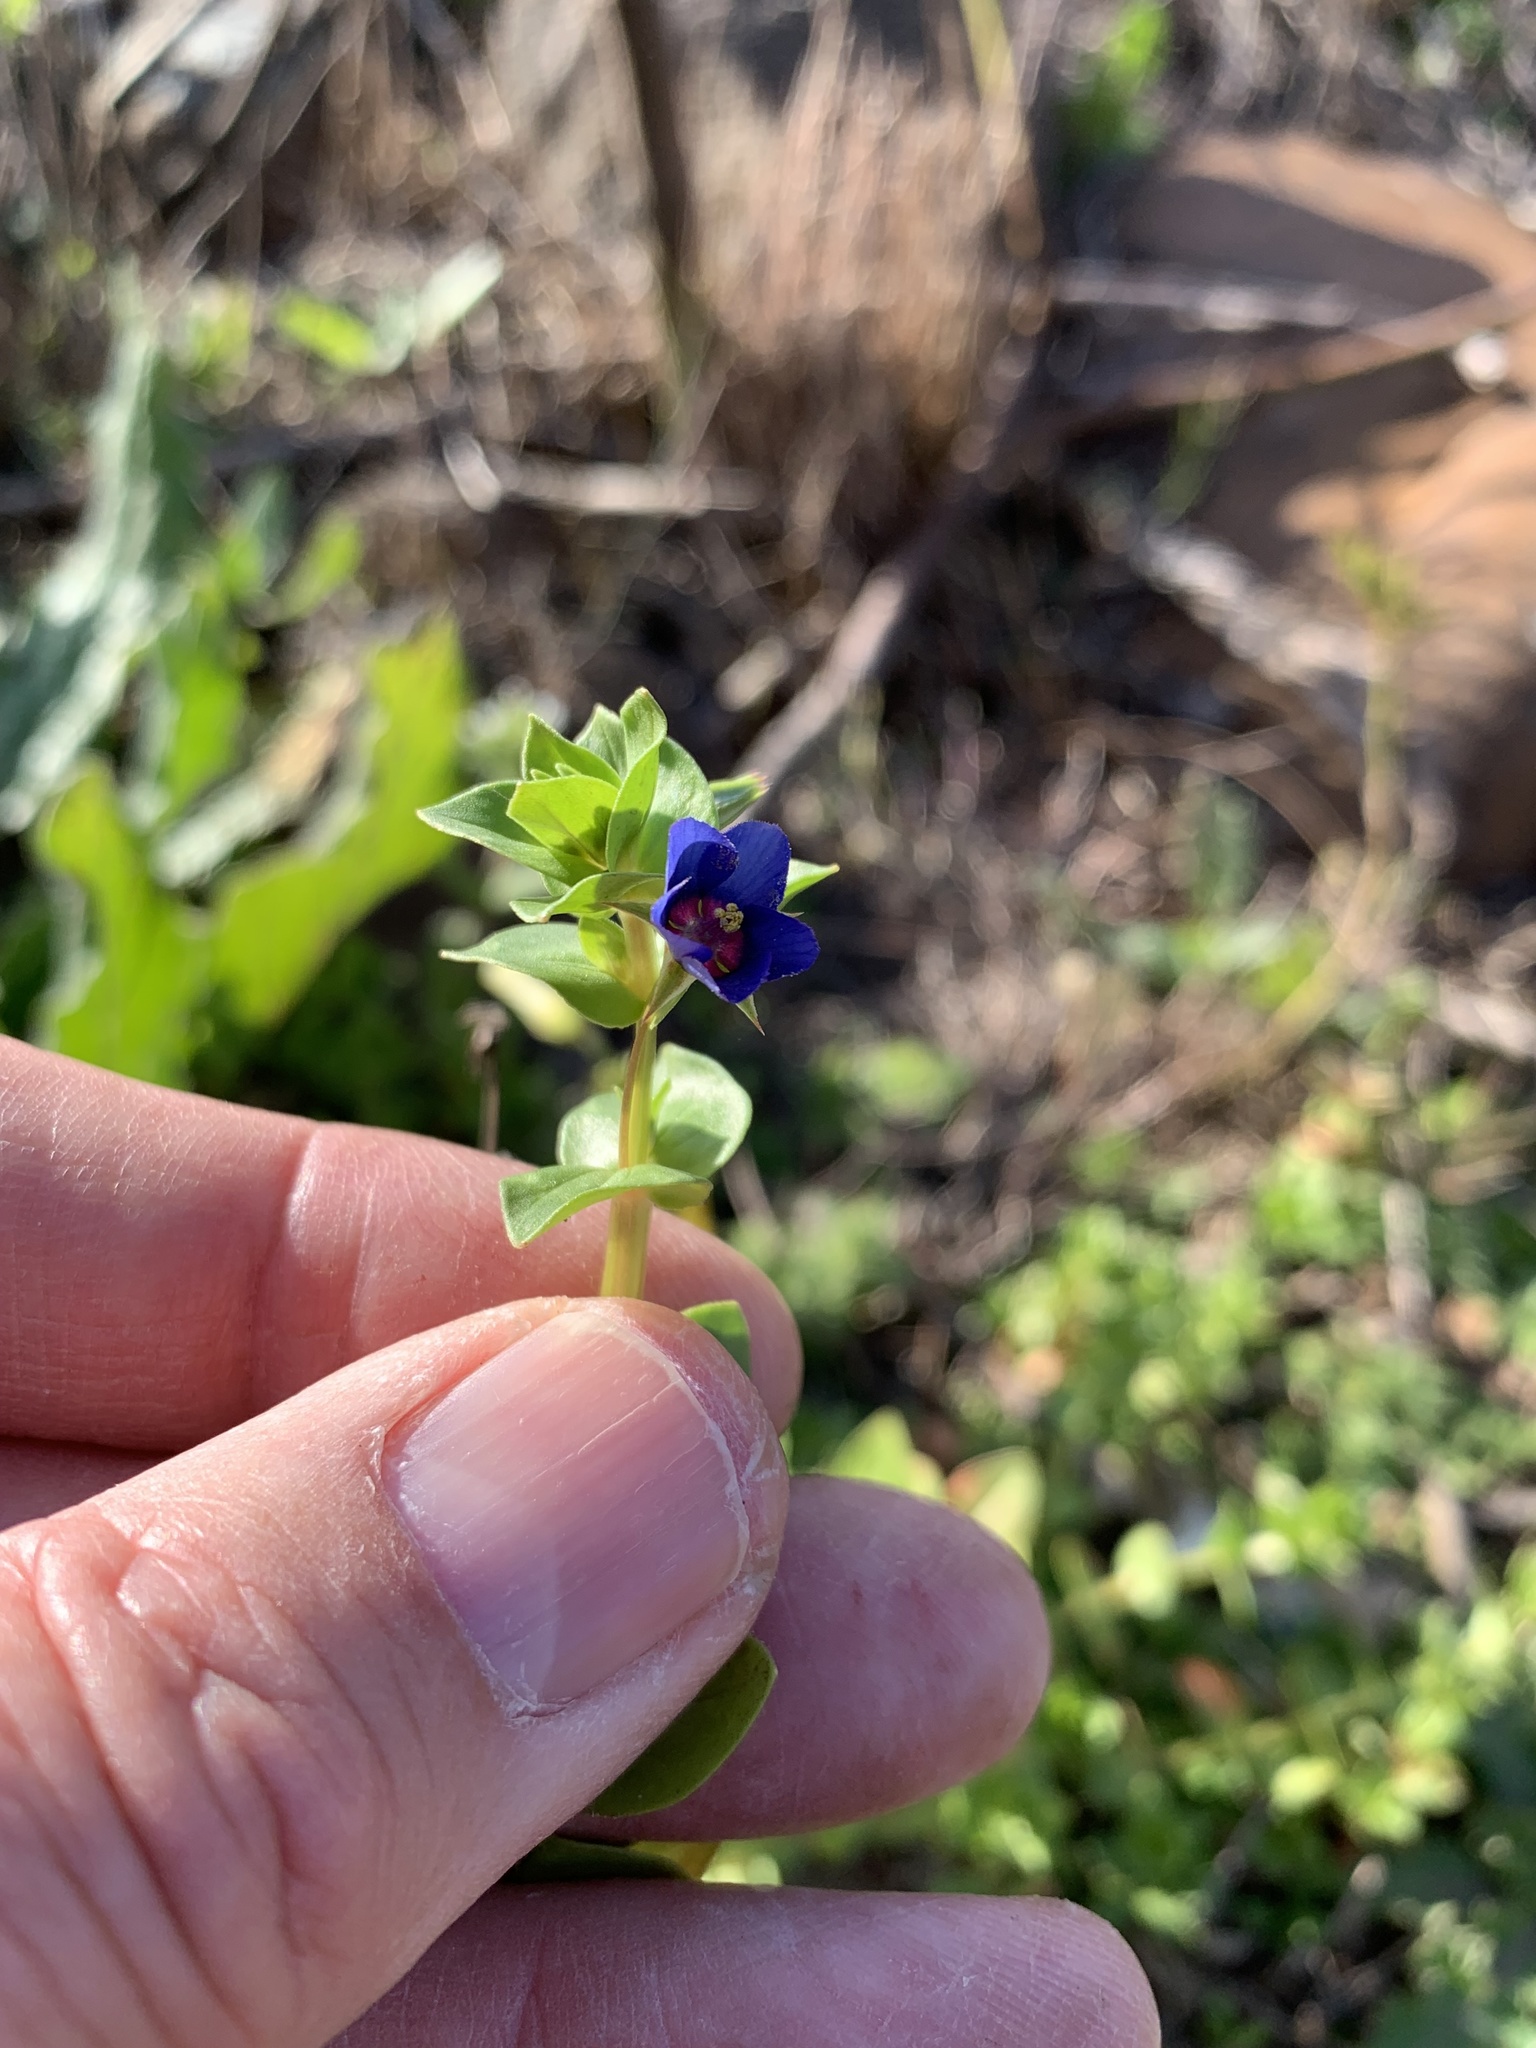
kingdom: Plantae
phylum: Tracheophyta
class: Magnoliopsida
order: Ericales
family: Primulaceae
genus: Lysimachia
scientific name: Lysimachia loeflingii
